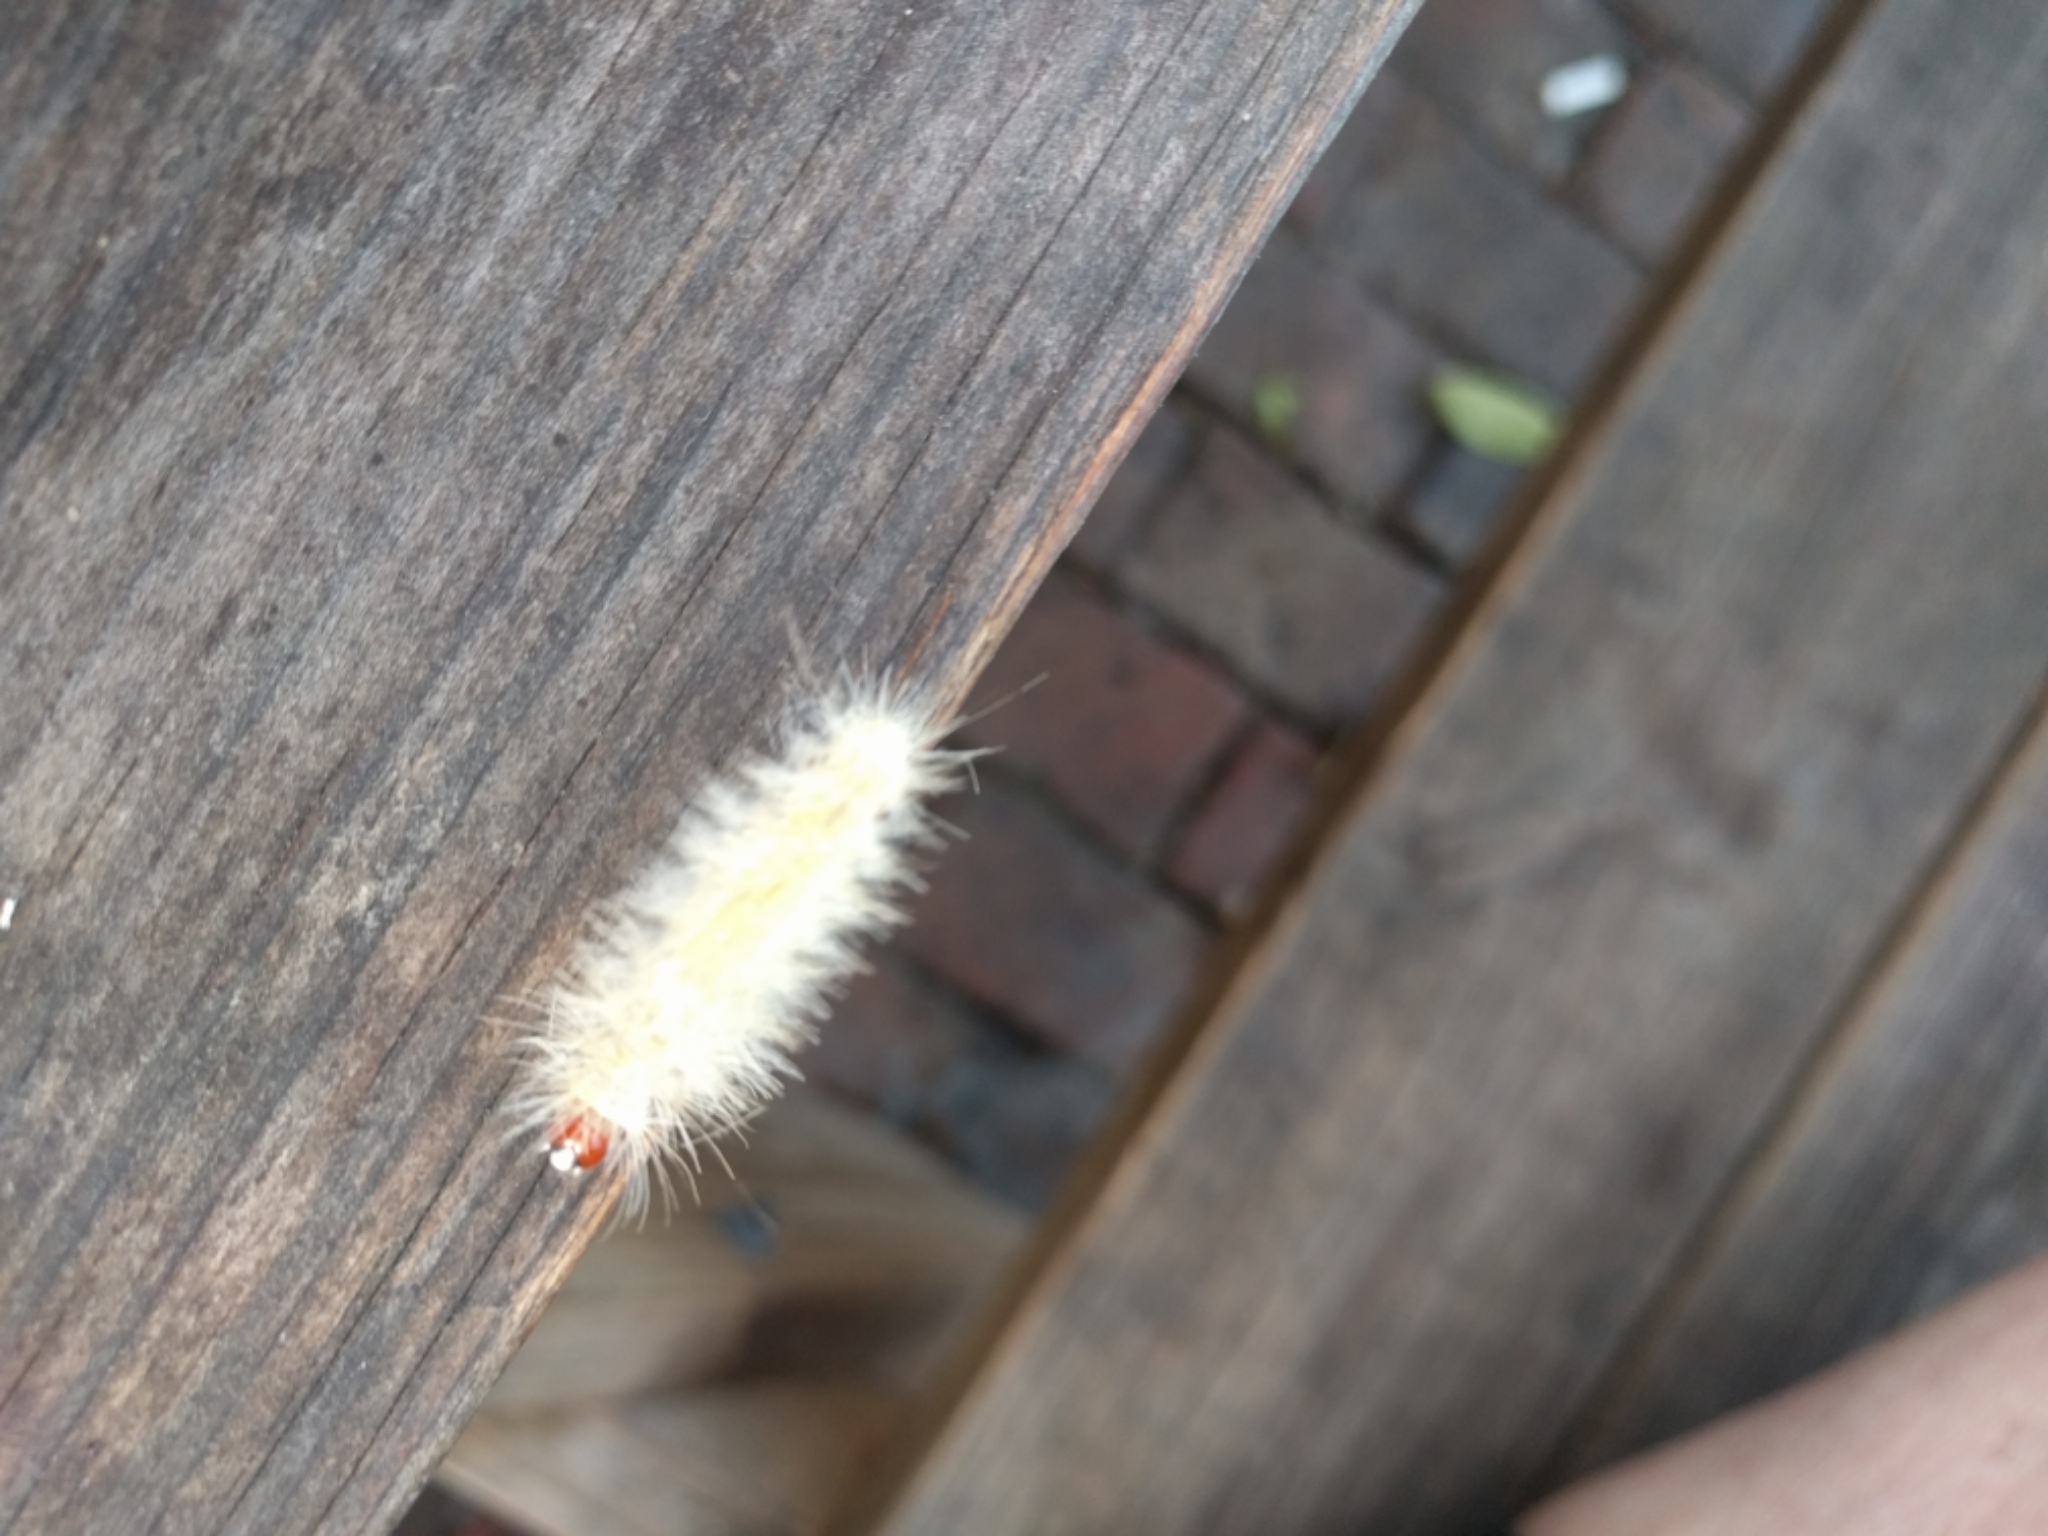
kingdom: Animalia
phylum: Arthropoda
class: Insecta
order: Lepidoptera
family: Erebidae
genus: Lymire
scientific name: Lymire edwardsii
